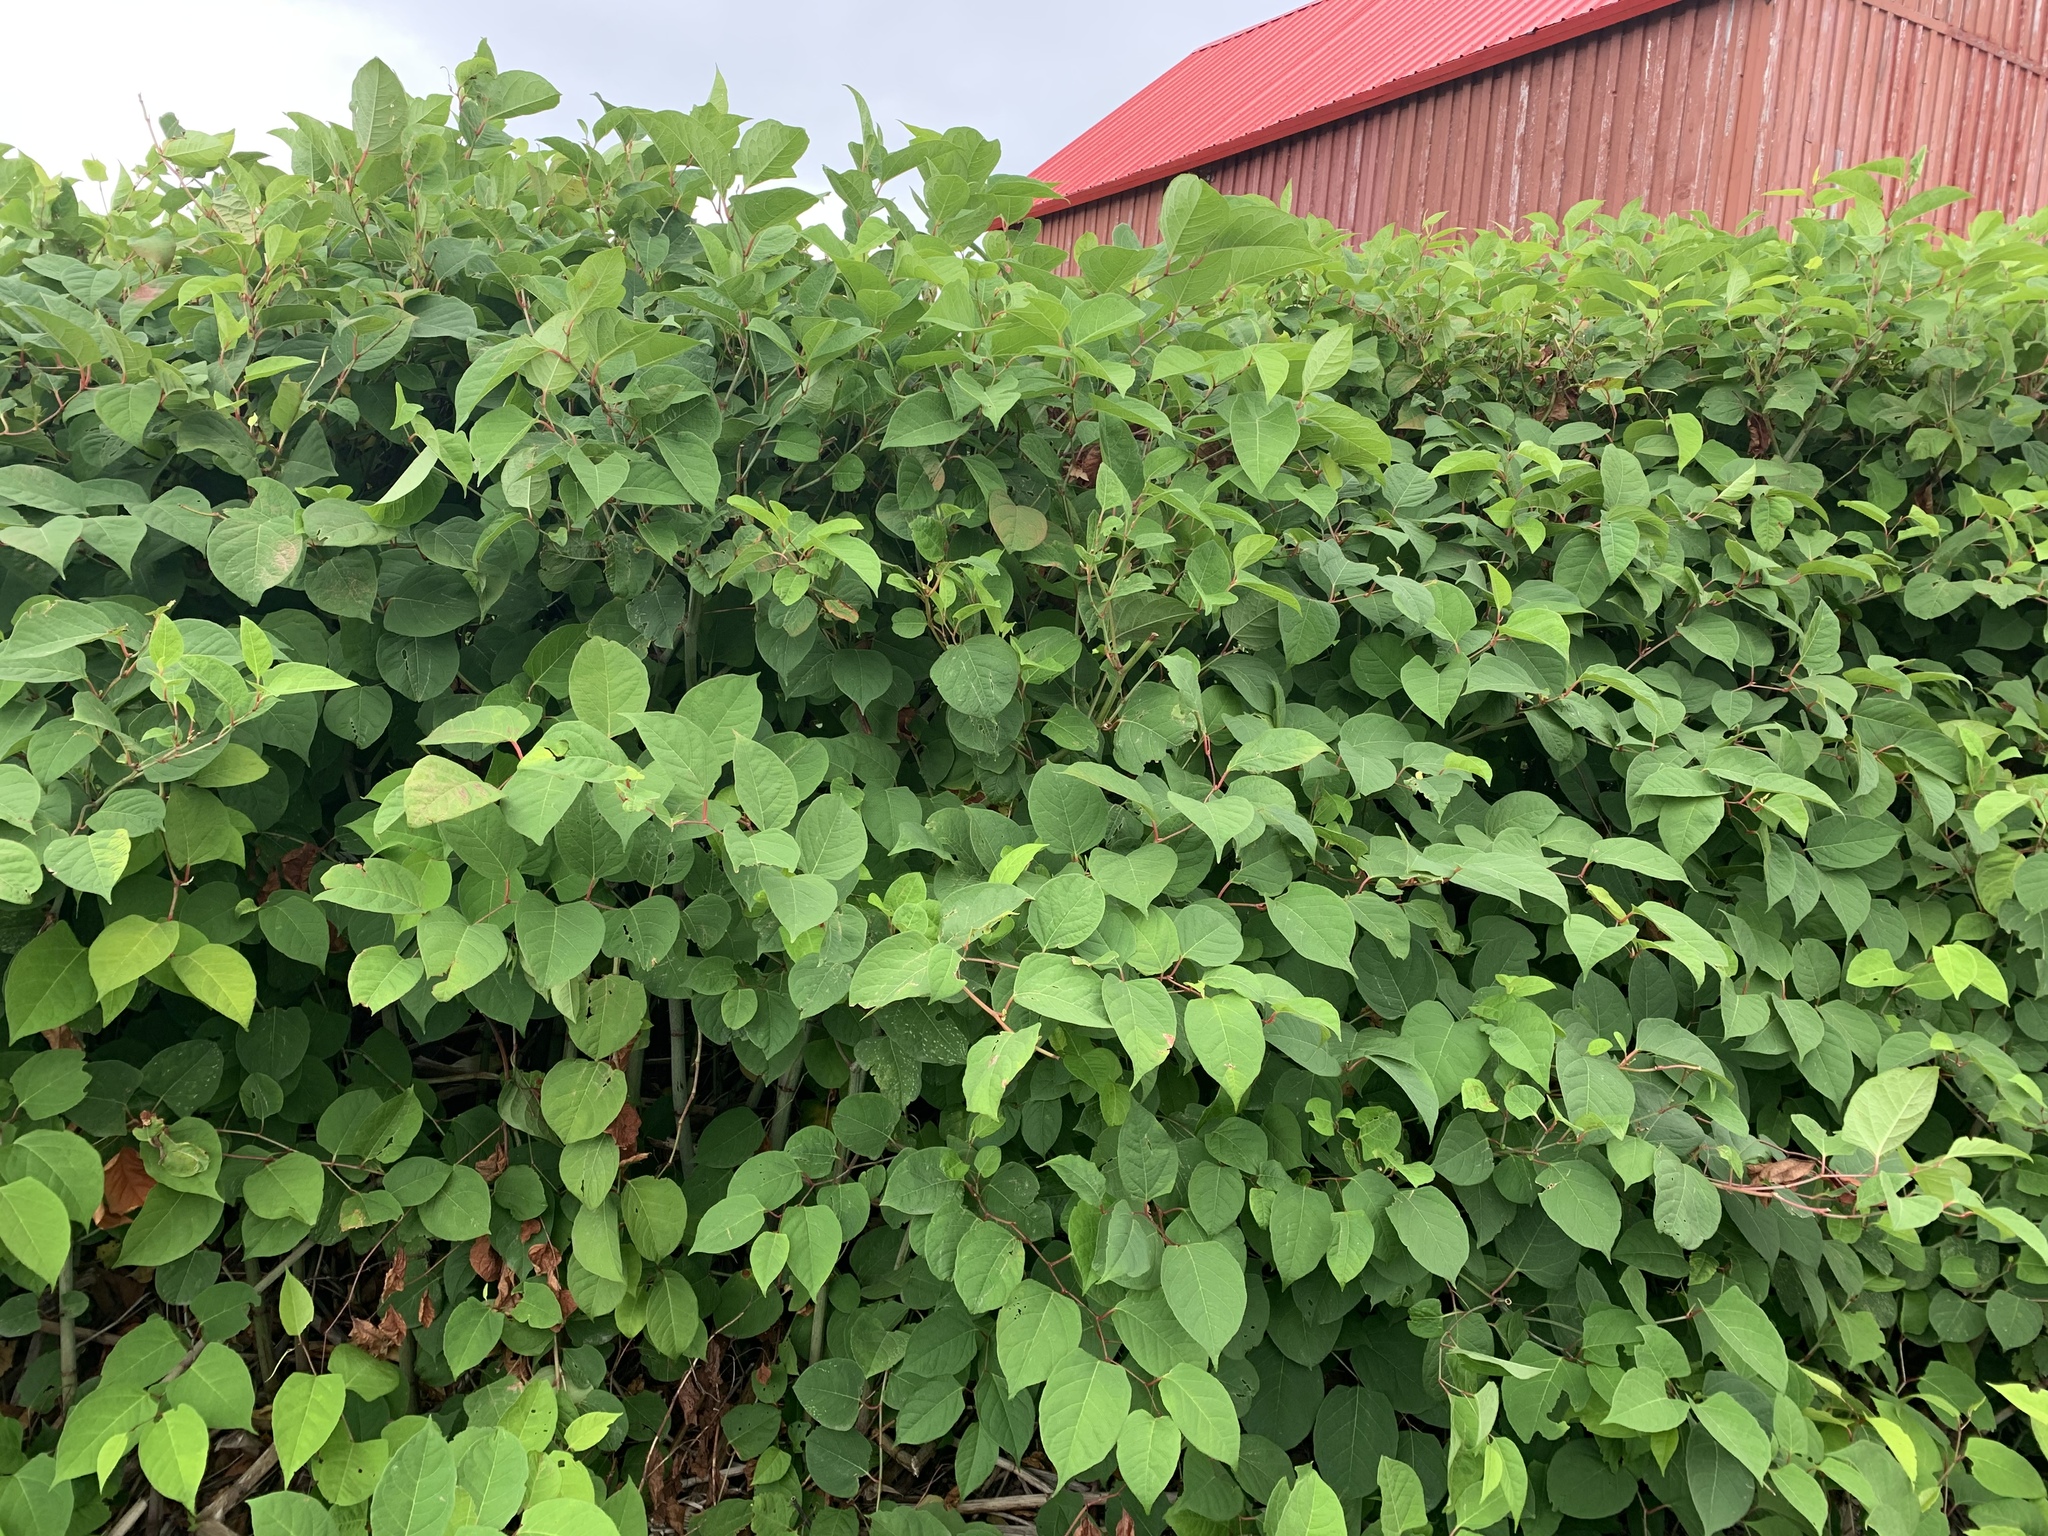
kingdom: Plantae
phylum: Tracheophyta
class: Magnoliopsida
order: Caryophyllales
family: Polygonaceae
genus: Reynoutria
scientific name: Reynoutria japonica
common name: Japanese knotweed
